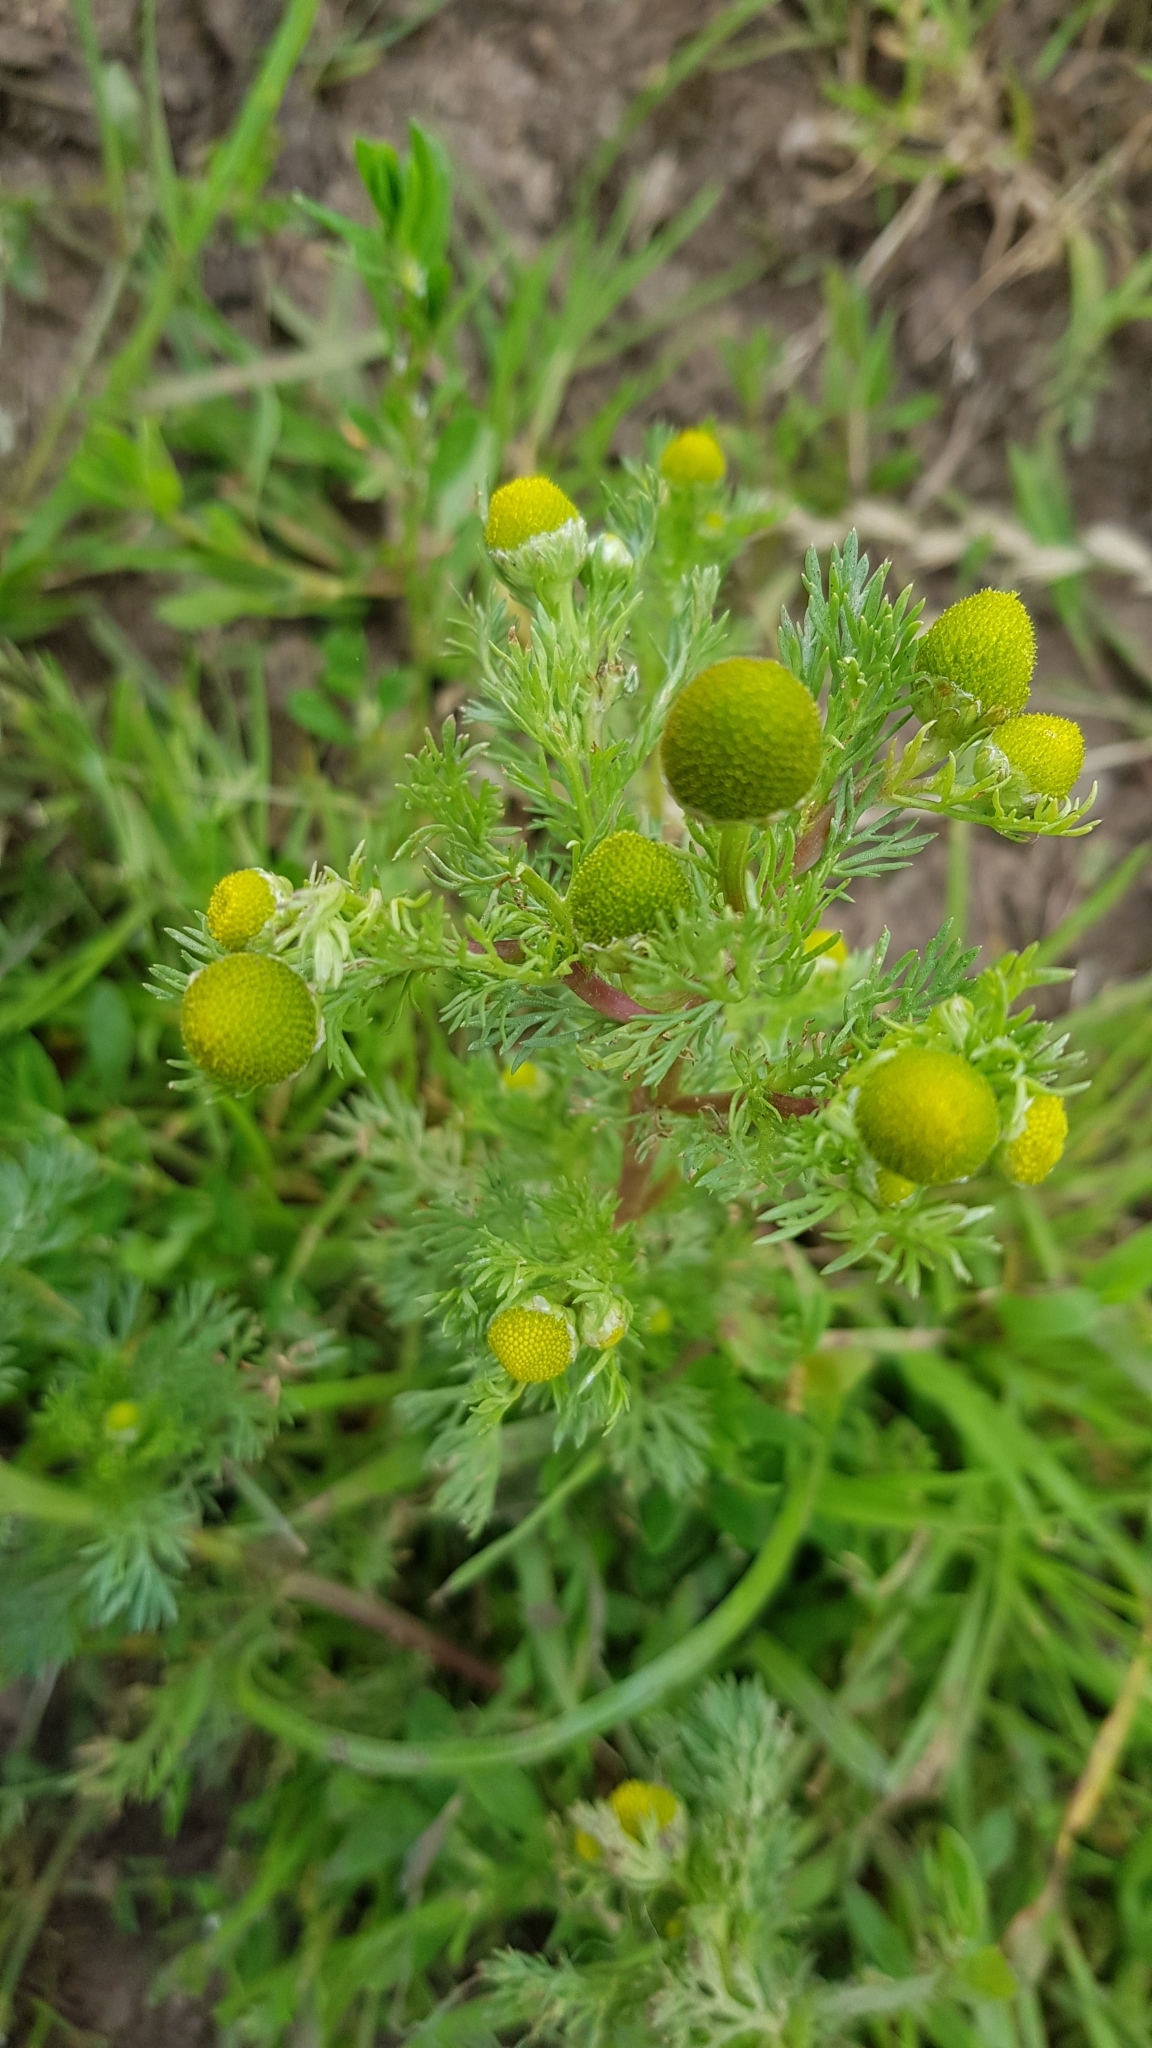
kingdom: Plantae
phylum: Tracheophyta
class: Magnoliopsida
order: Asterales
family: Asteraceae
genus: Matricaria
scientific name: Matricaria discoidea
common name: Disc mayweed
